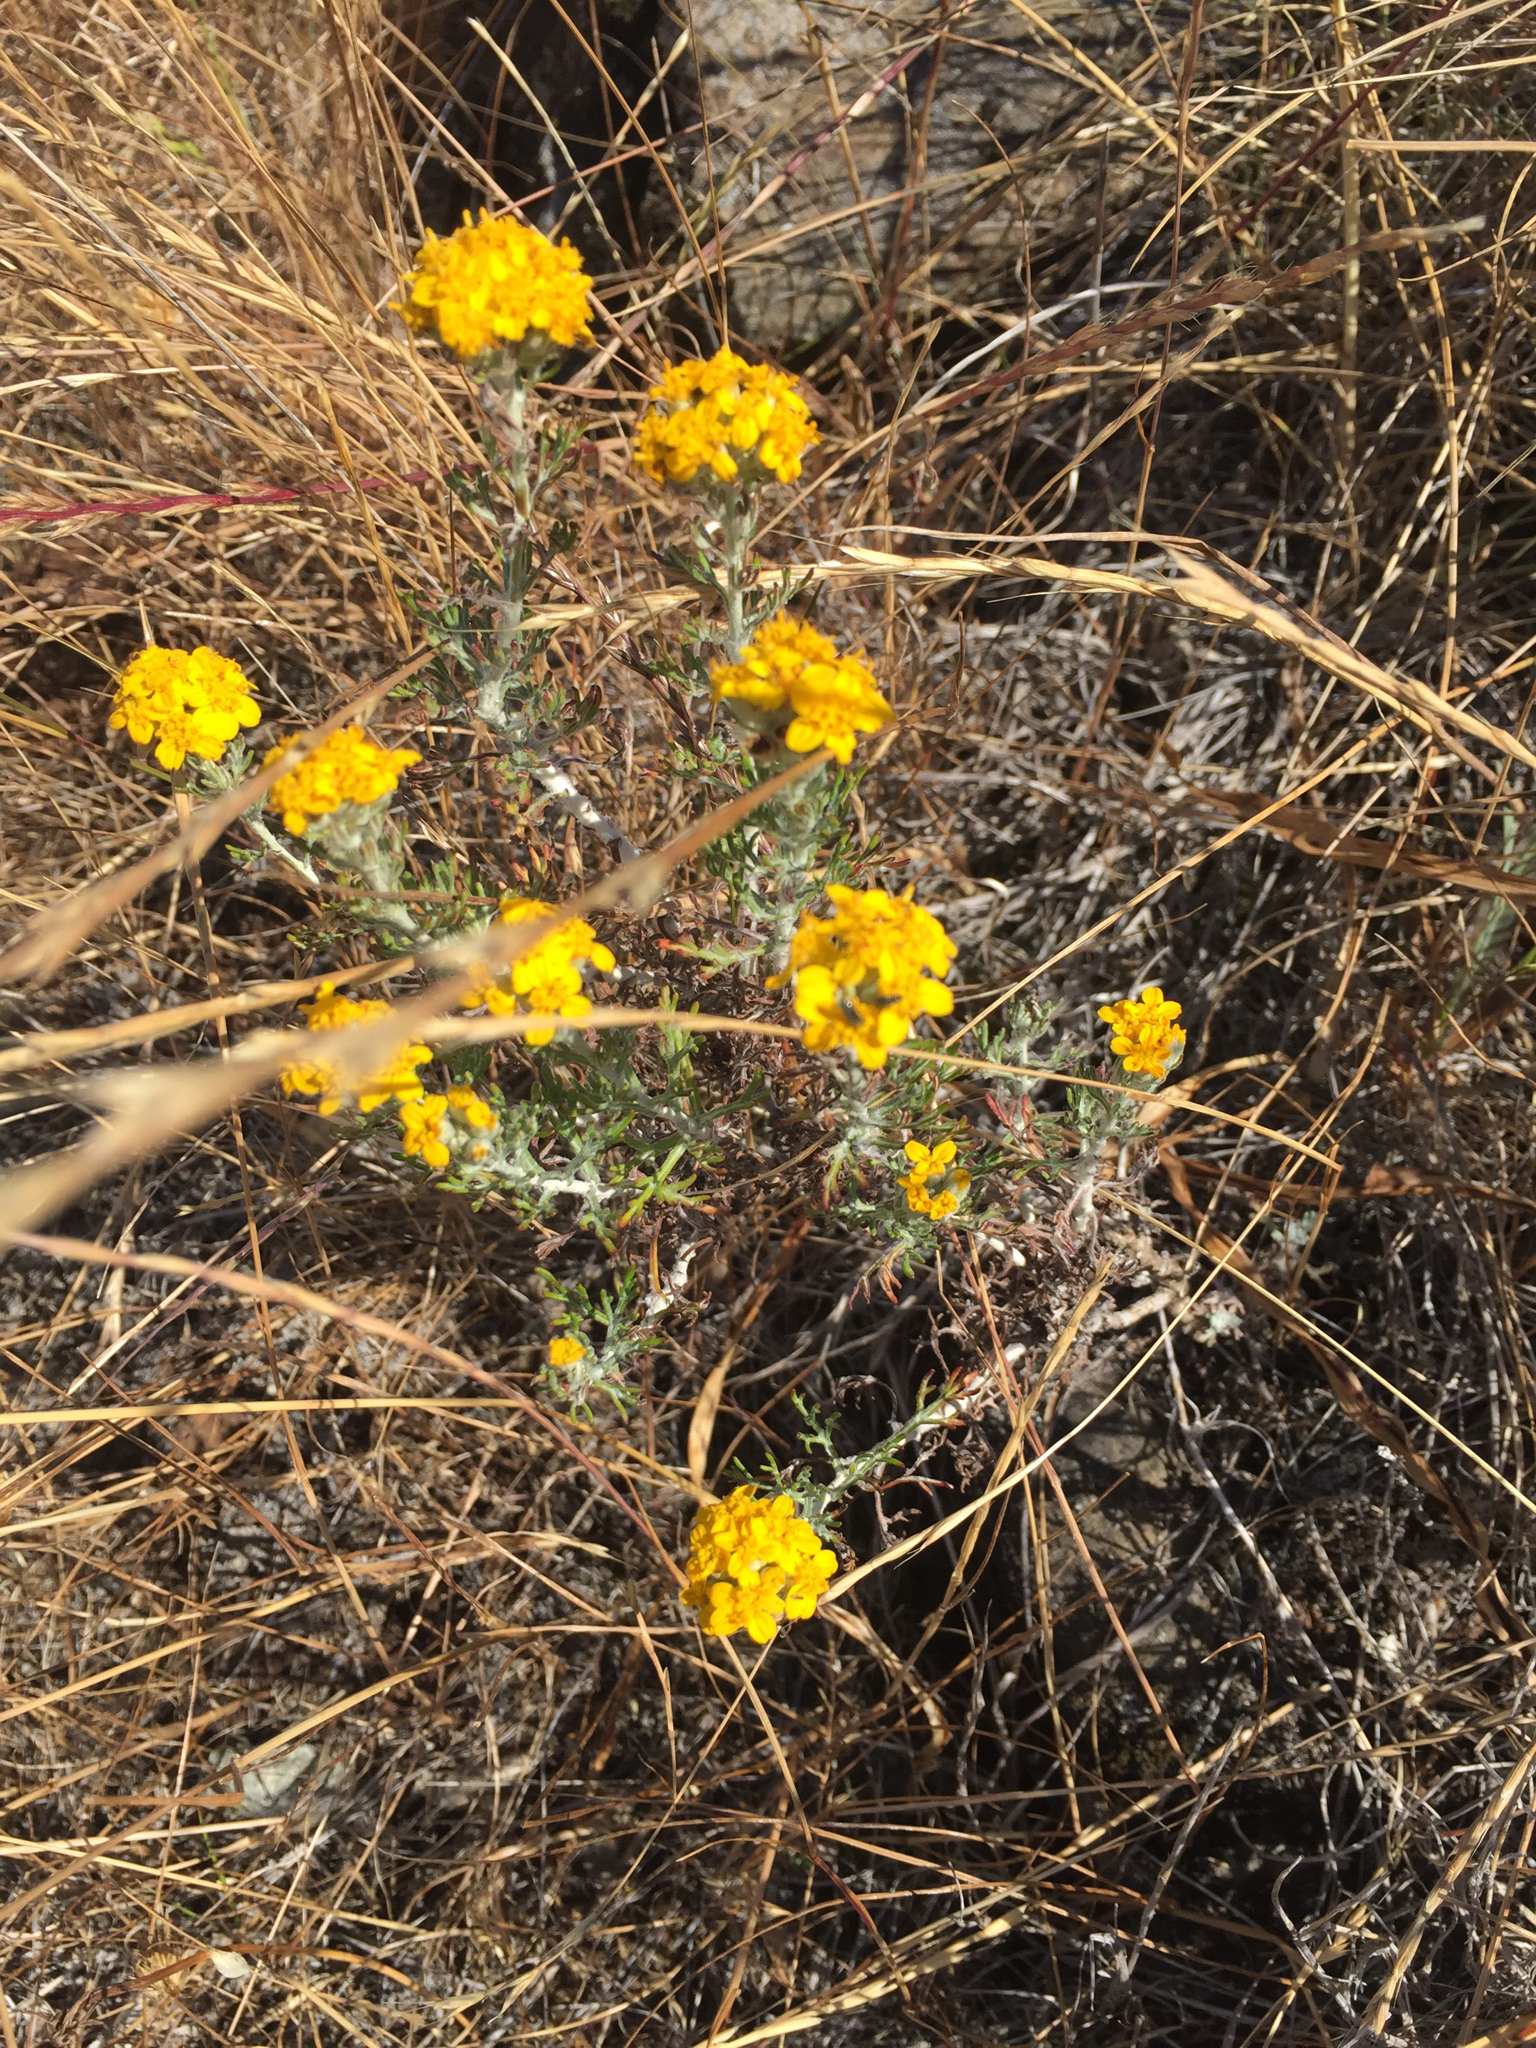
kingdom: Plantae
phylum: Tracheophyta
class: Magnoliopsida
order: Asterales
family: Asteraceae
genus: Eriophyllum
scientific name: Eriophyllum confertiflorum
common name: Golden-yarrow
